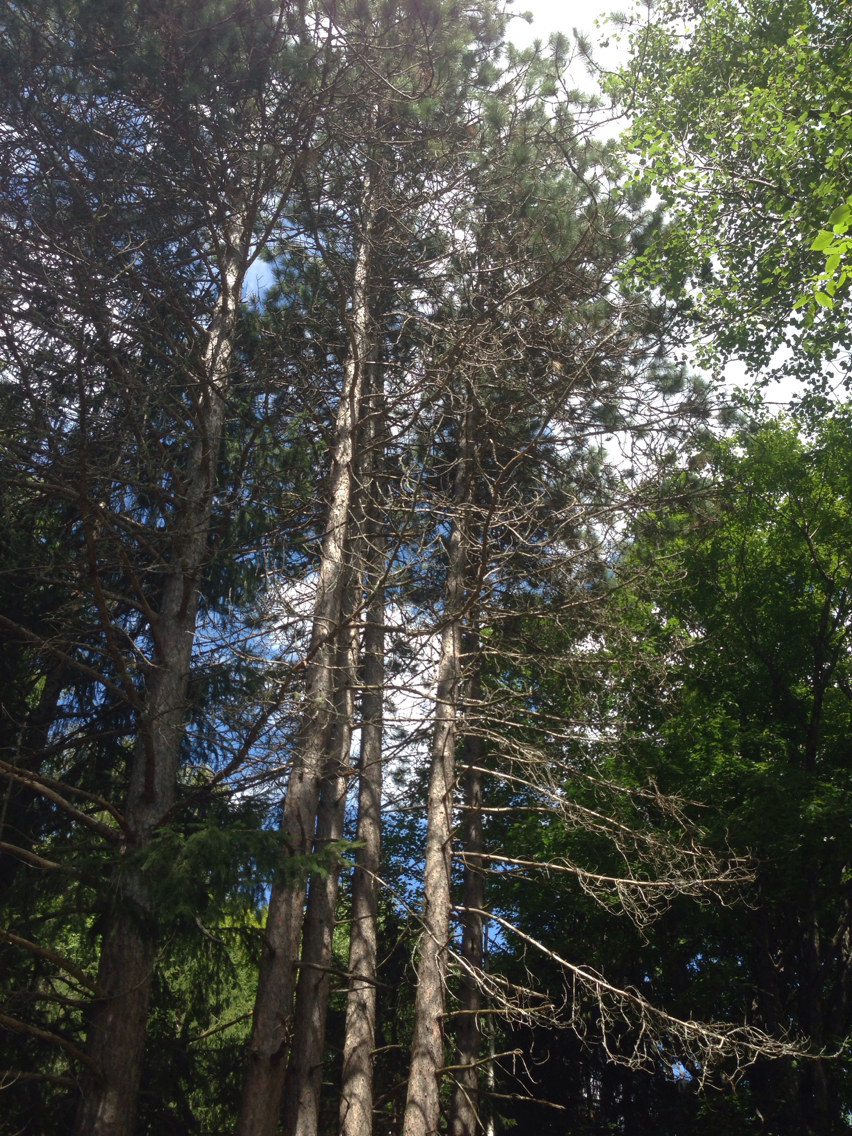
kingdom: Plantae
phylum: Tracheophyta
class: Pinopsida
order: Pinales
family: Pinaceae
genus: Pinus
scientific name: Pinus resinosa
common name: Norway pine
